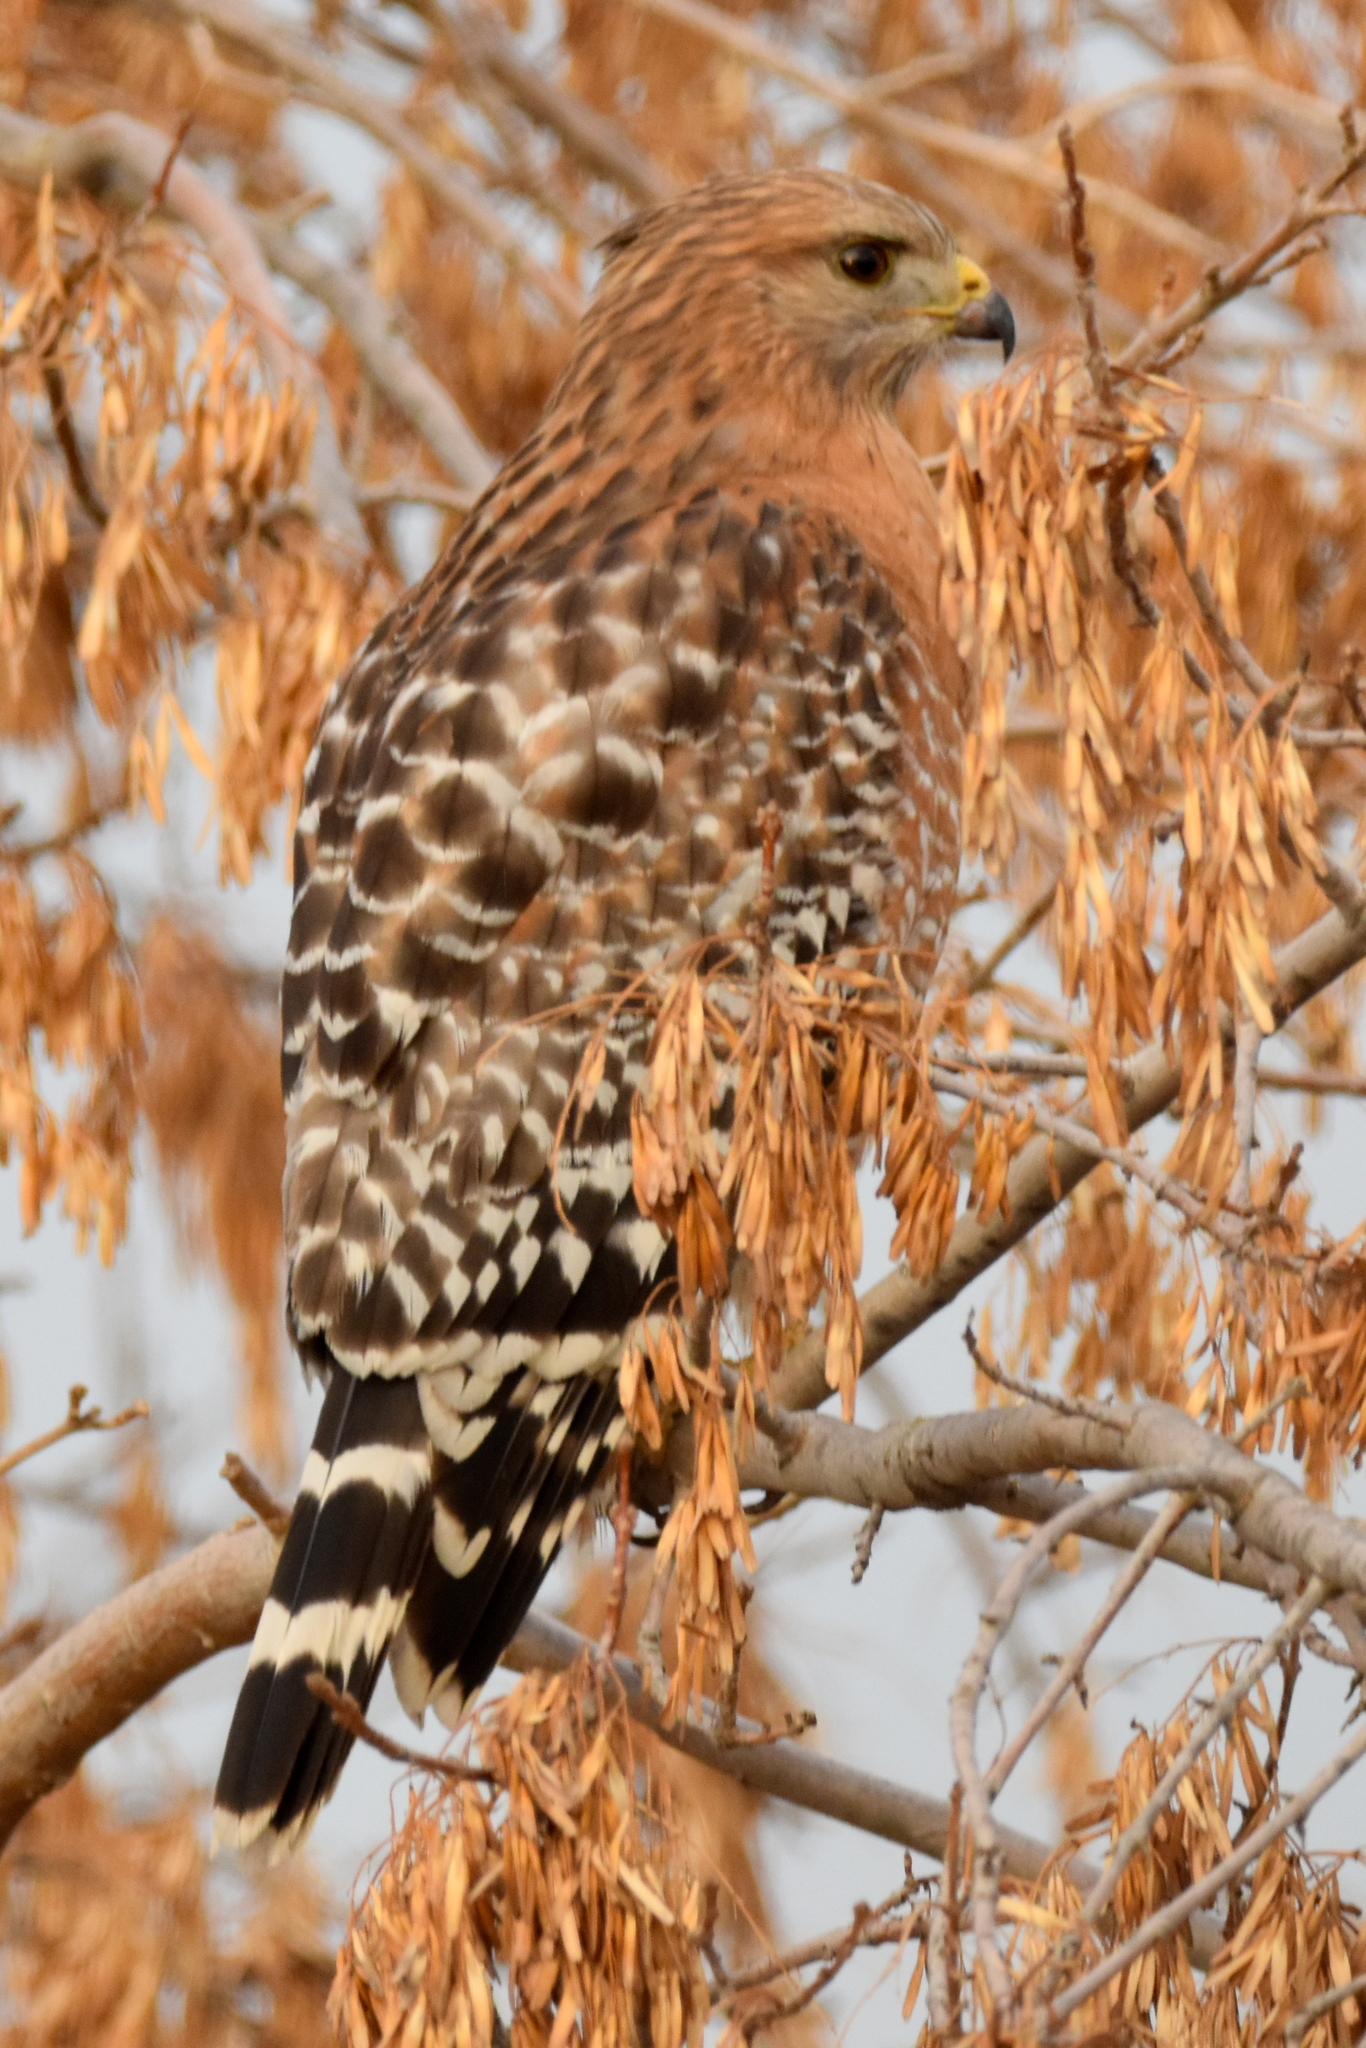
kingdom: Animalia
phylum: Chordata
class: Aves
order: Accipitriformes
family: Accipitridae
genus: Buteo
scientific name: Buteo lineatus
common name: Red-shouldered hawk
